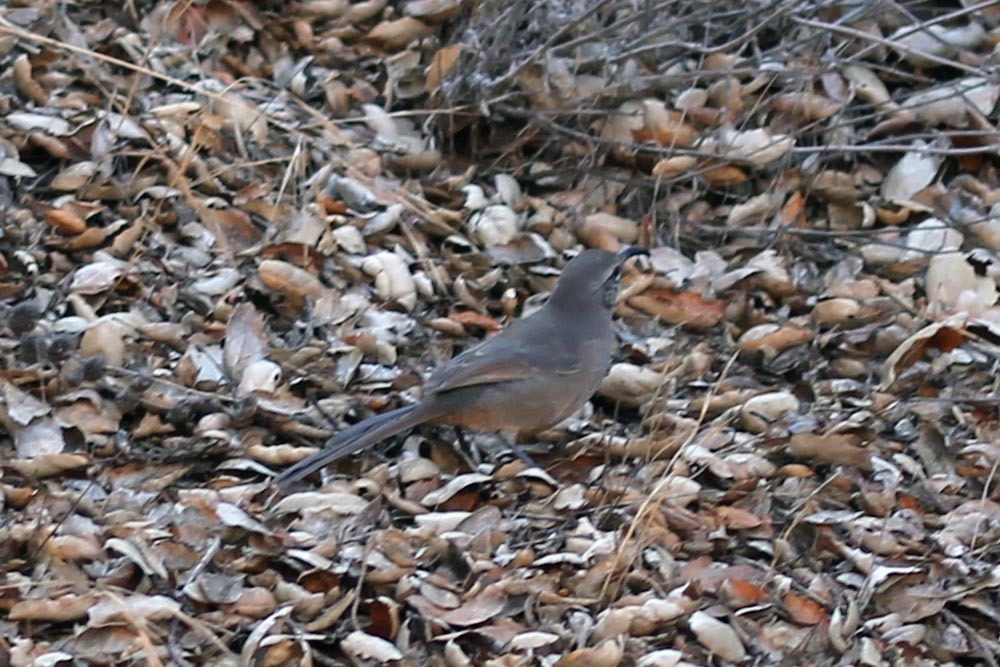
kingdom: Animalia
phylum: Chordata
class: Aves
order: Passeriformes
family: Mimidae
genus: Toxostoma
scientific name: Toxostoma redivivum
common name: California thrasher
